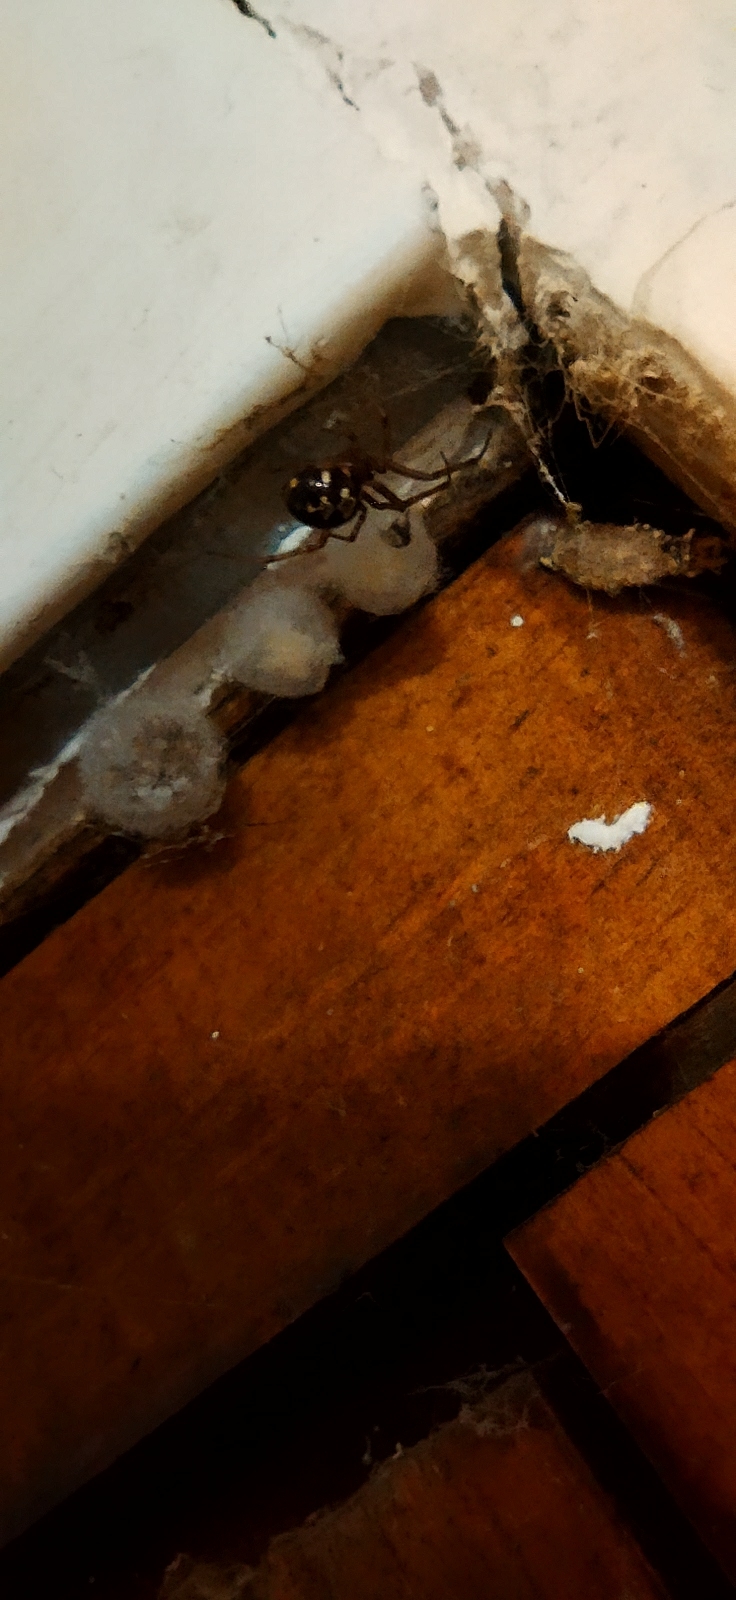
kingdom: Animalia
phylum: Arthropoda
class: Arachnida
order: Araneae
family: Theridiidae
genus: Steatoda
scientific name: Steatoda triangulosa
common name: Triangulate bud spider
